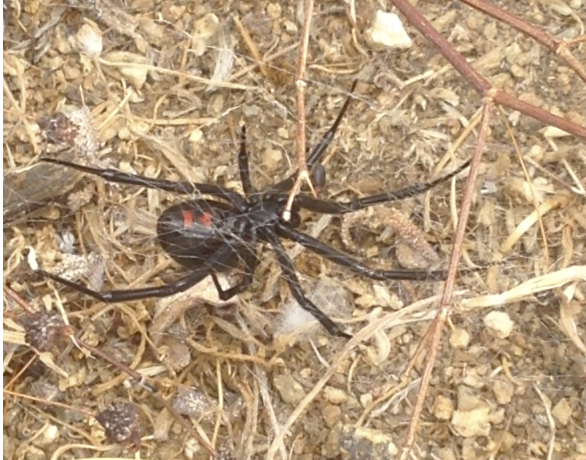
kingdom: Animalia
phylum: Arthropoda
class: Arachnida
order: Araneae
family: Theridiidae
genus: Latrodectus
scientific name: Latrodectus hesperus
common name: Western black widow
